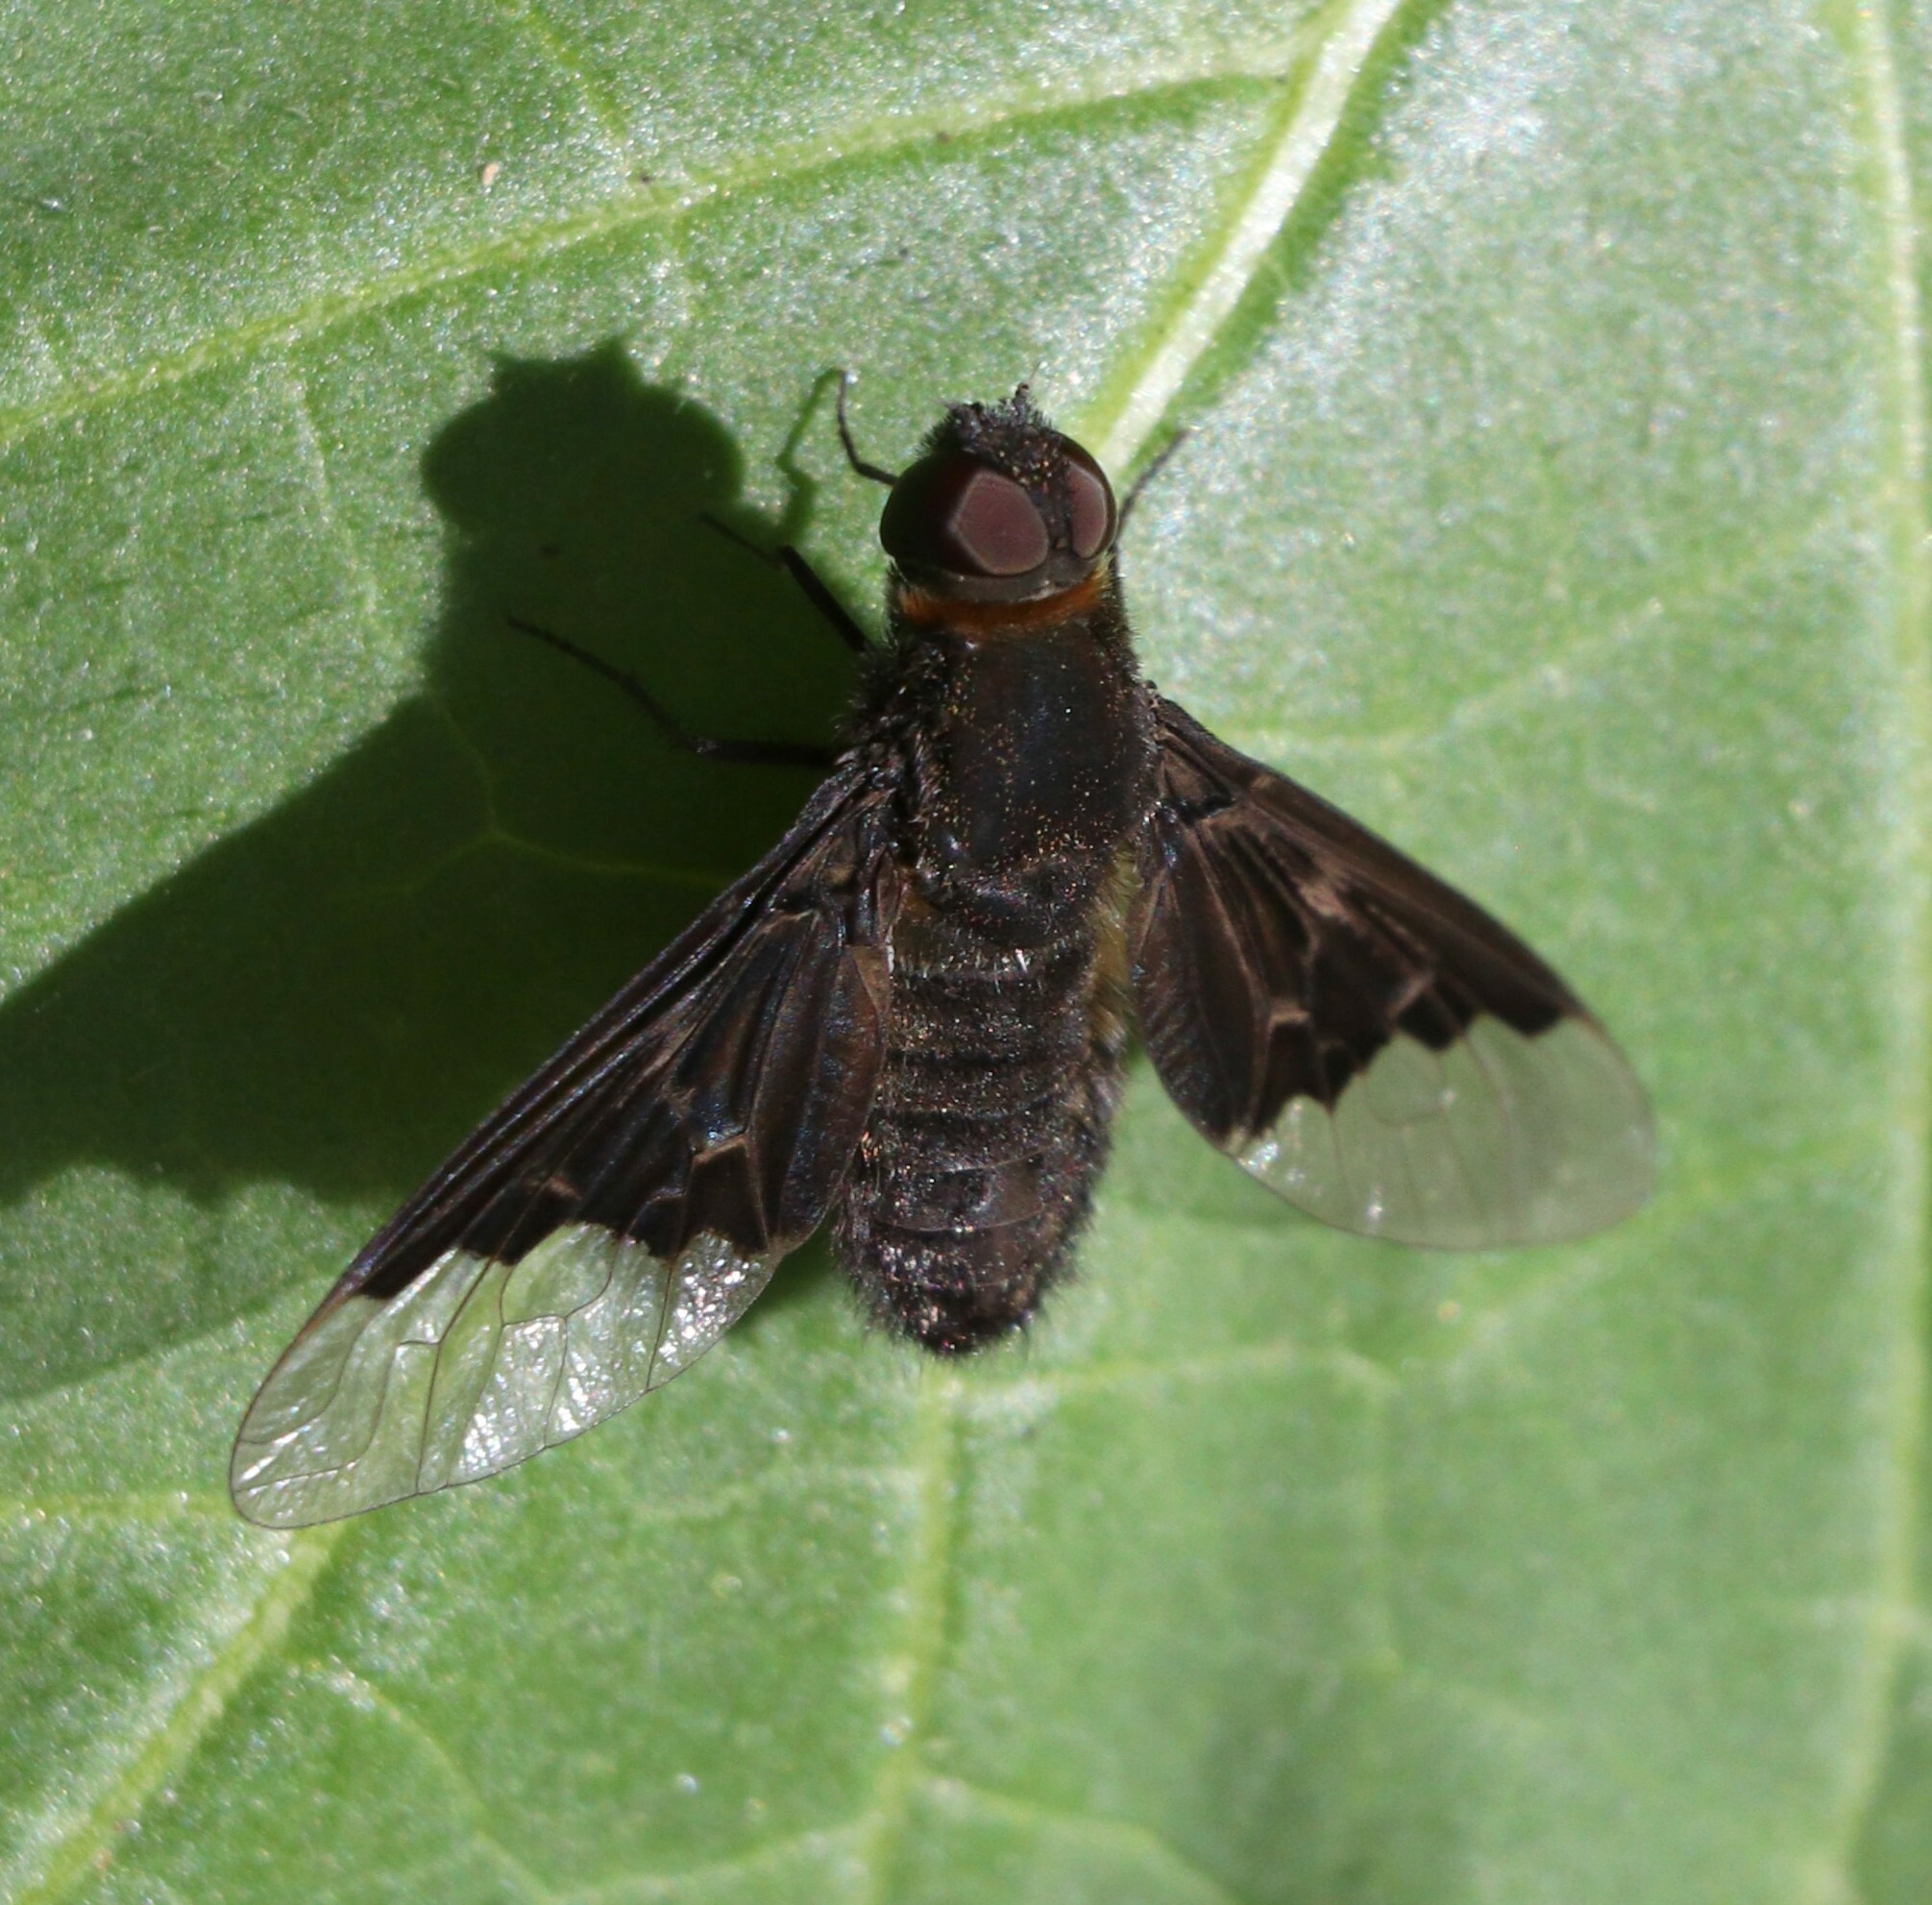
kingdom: Animalia
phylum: Arthropoda
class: Insecta
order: Diptera
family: Bombyliidae
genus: Hemipenthes
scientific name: Hemipenthes morio
